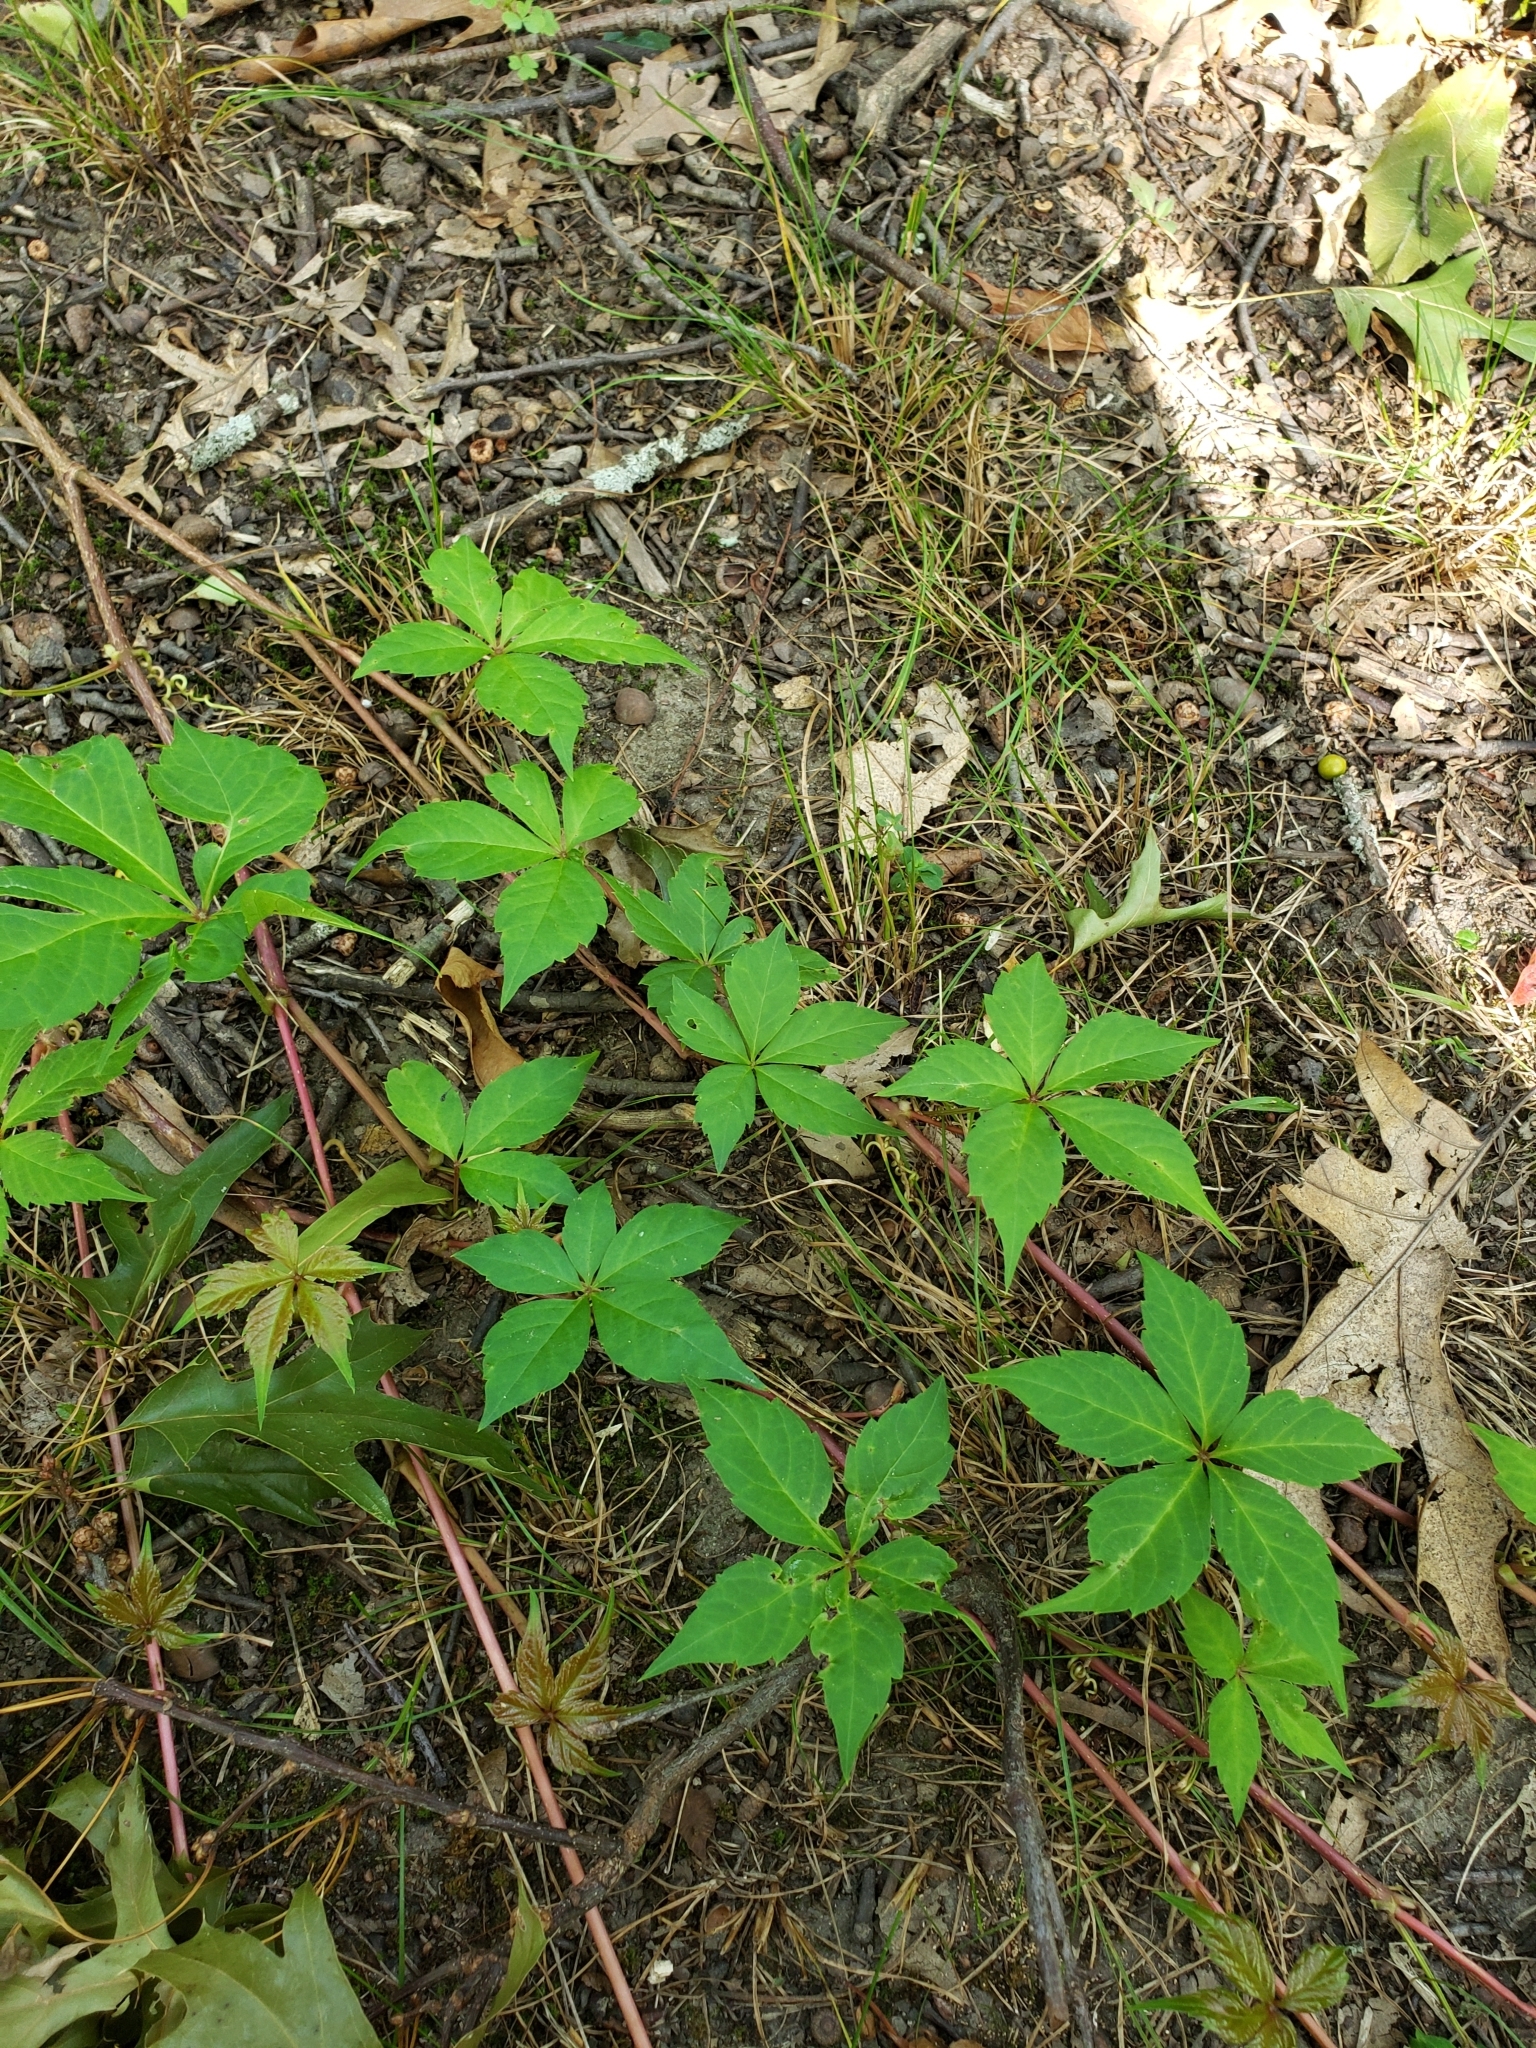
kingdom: Plantae
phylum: Tracheophyta
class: Magnoliopsida
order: Vitales
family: Vitaceae
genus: Parthenocissus
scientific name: Parthenocissus quinquefolia
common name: Virginia-creeper
